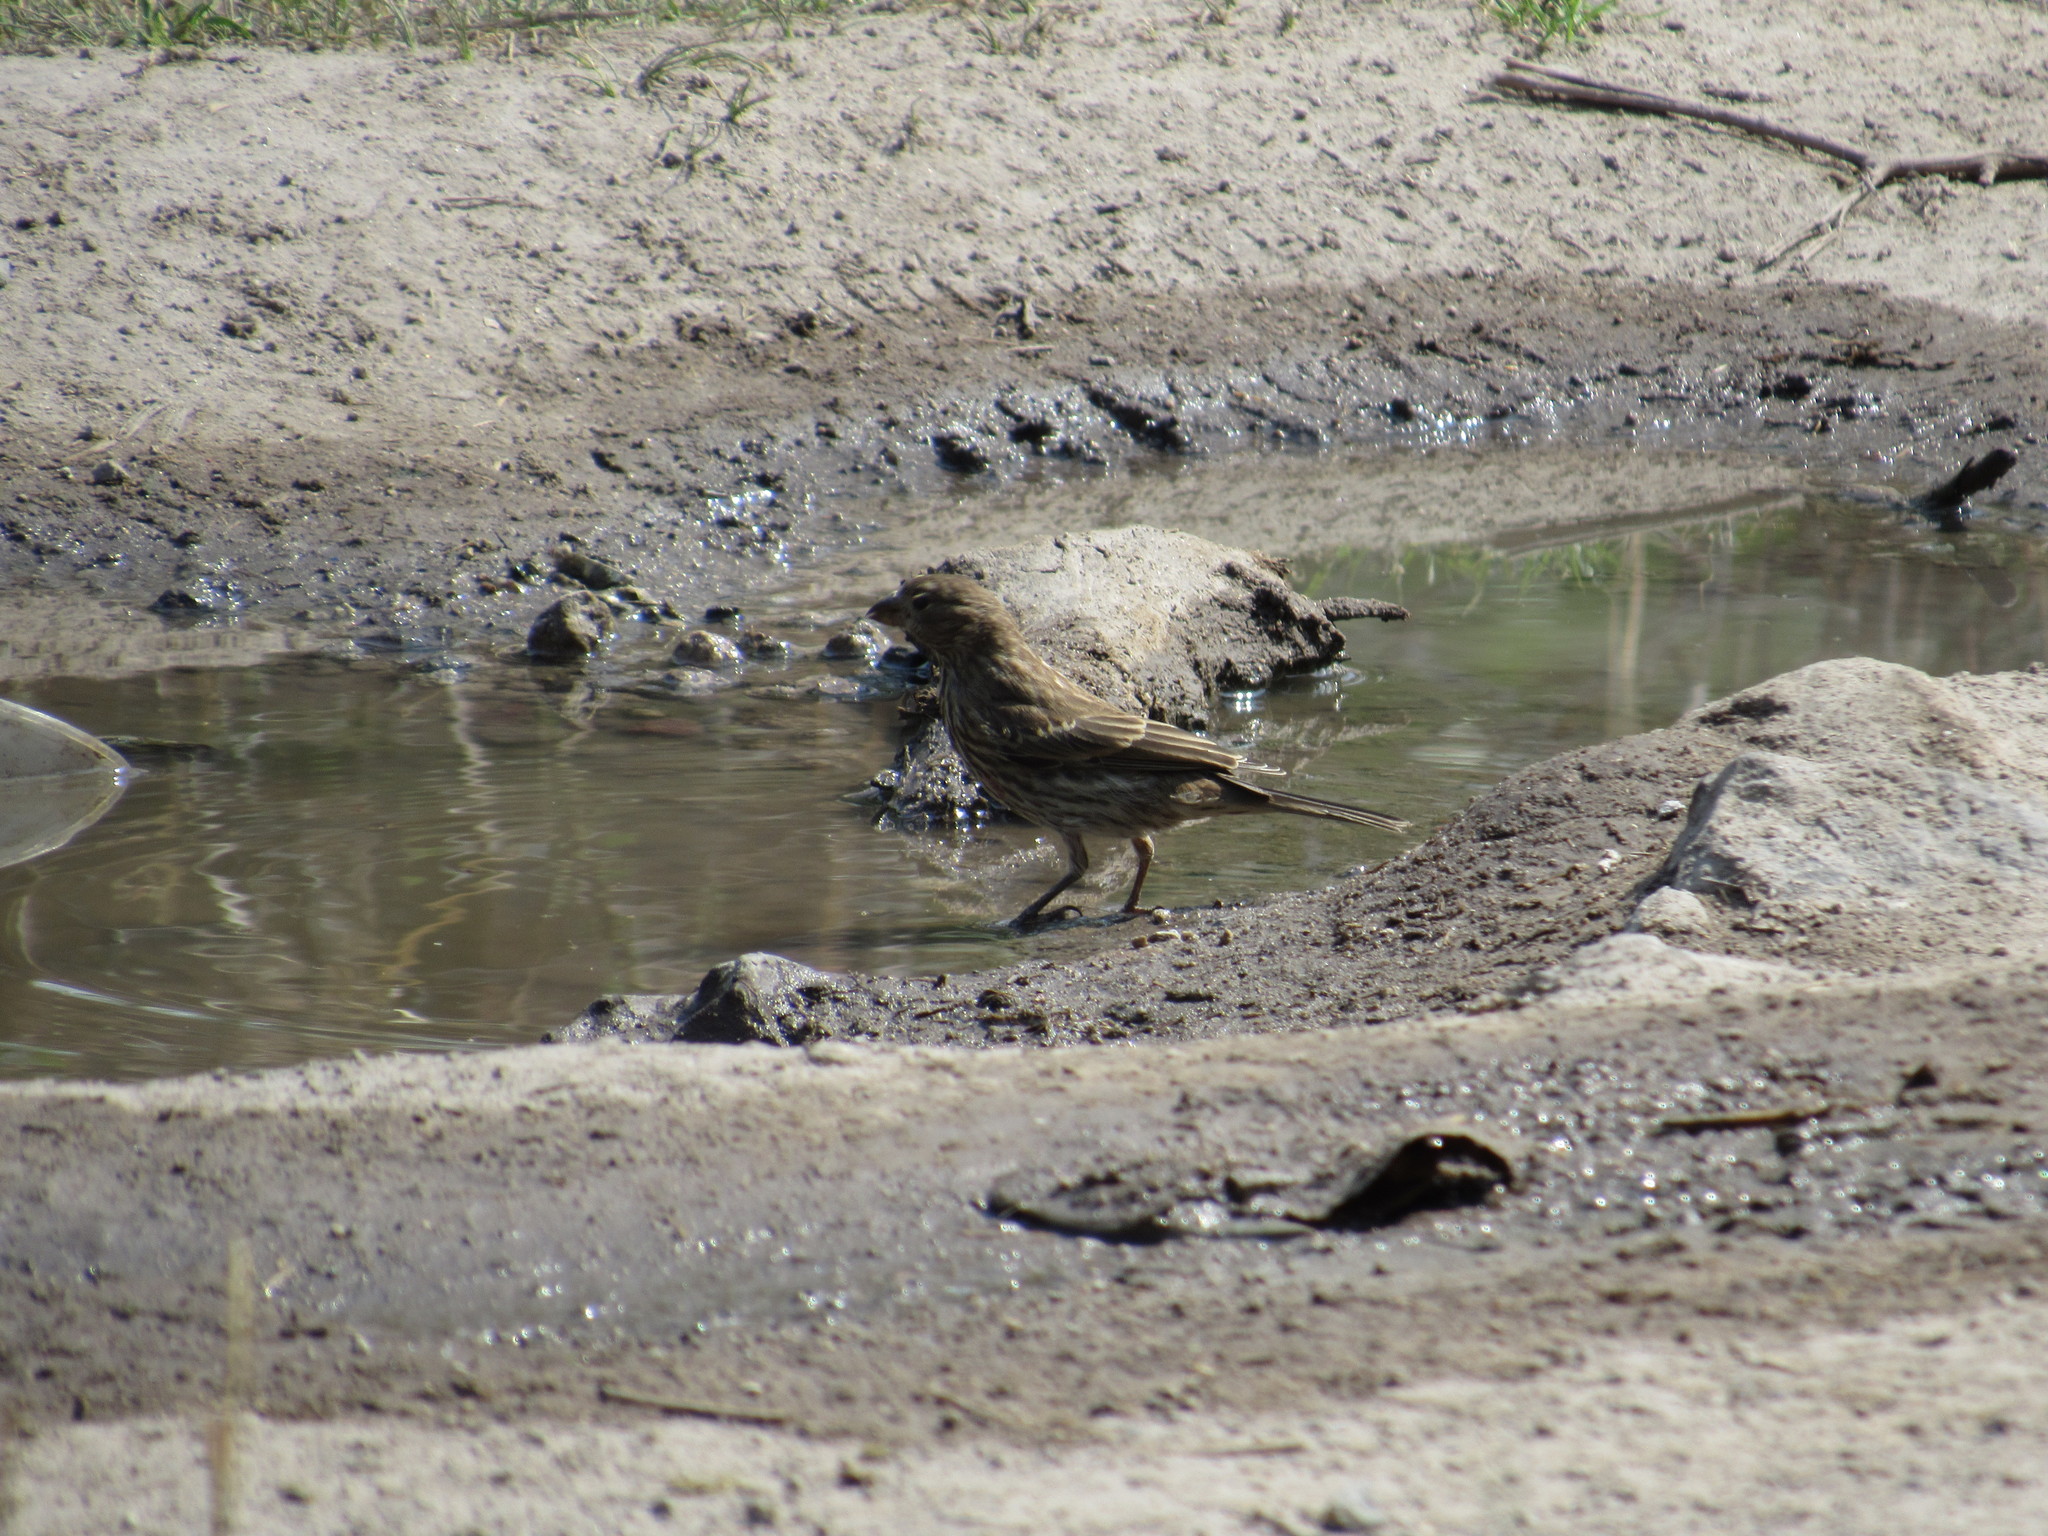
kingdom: Animalia
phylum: Chordata
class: Aves
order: Passeriformes
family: Fringillidae
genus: Haemorhous
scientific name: Haemorhous mexicanus
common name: House finch
